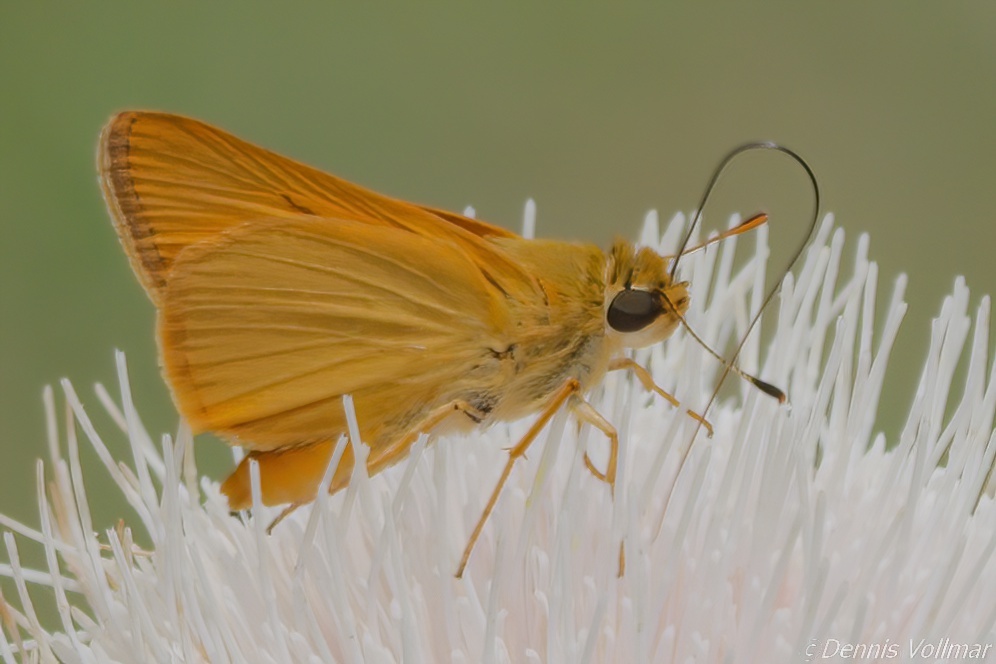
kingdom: Animalia
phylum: Arthropoda
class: Insecta
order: Lepidoptera
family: Hesperiidae
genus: Atrytone
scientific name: Atrytone delaware
